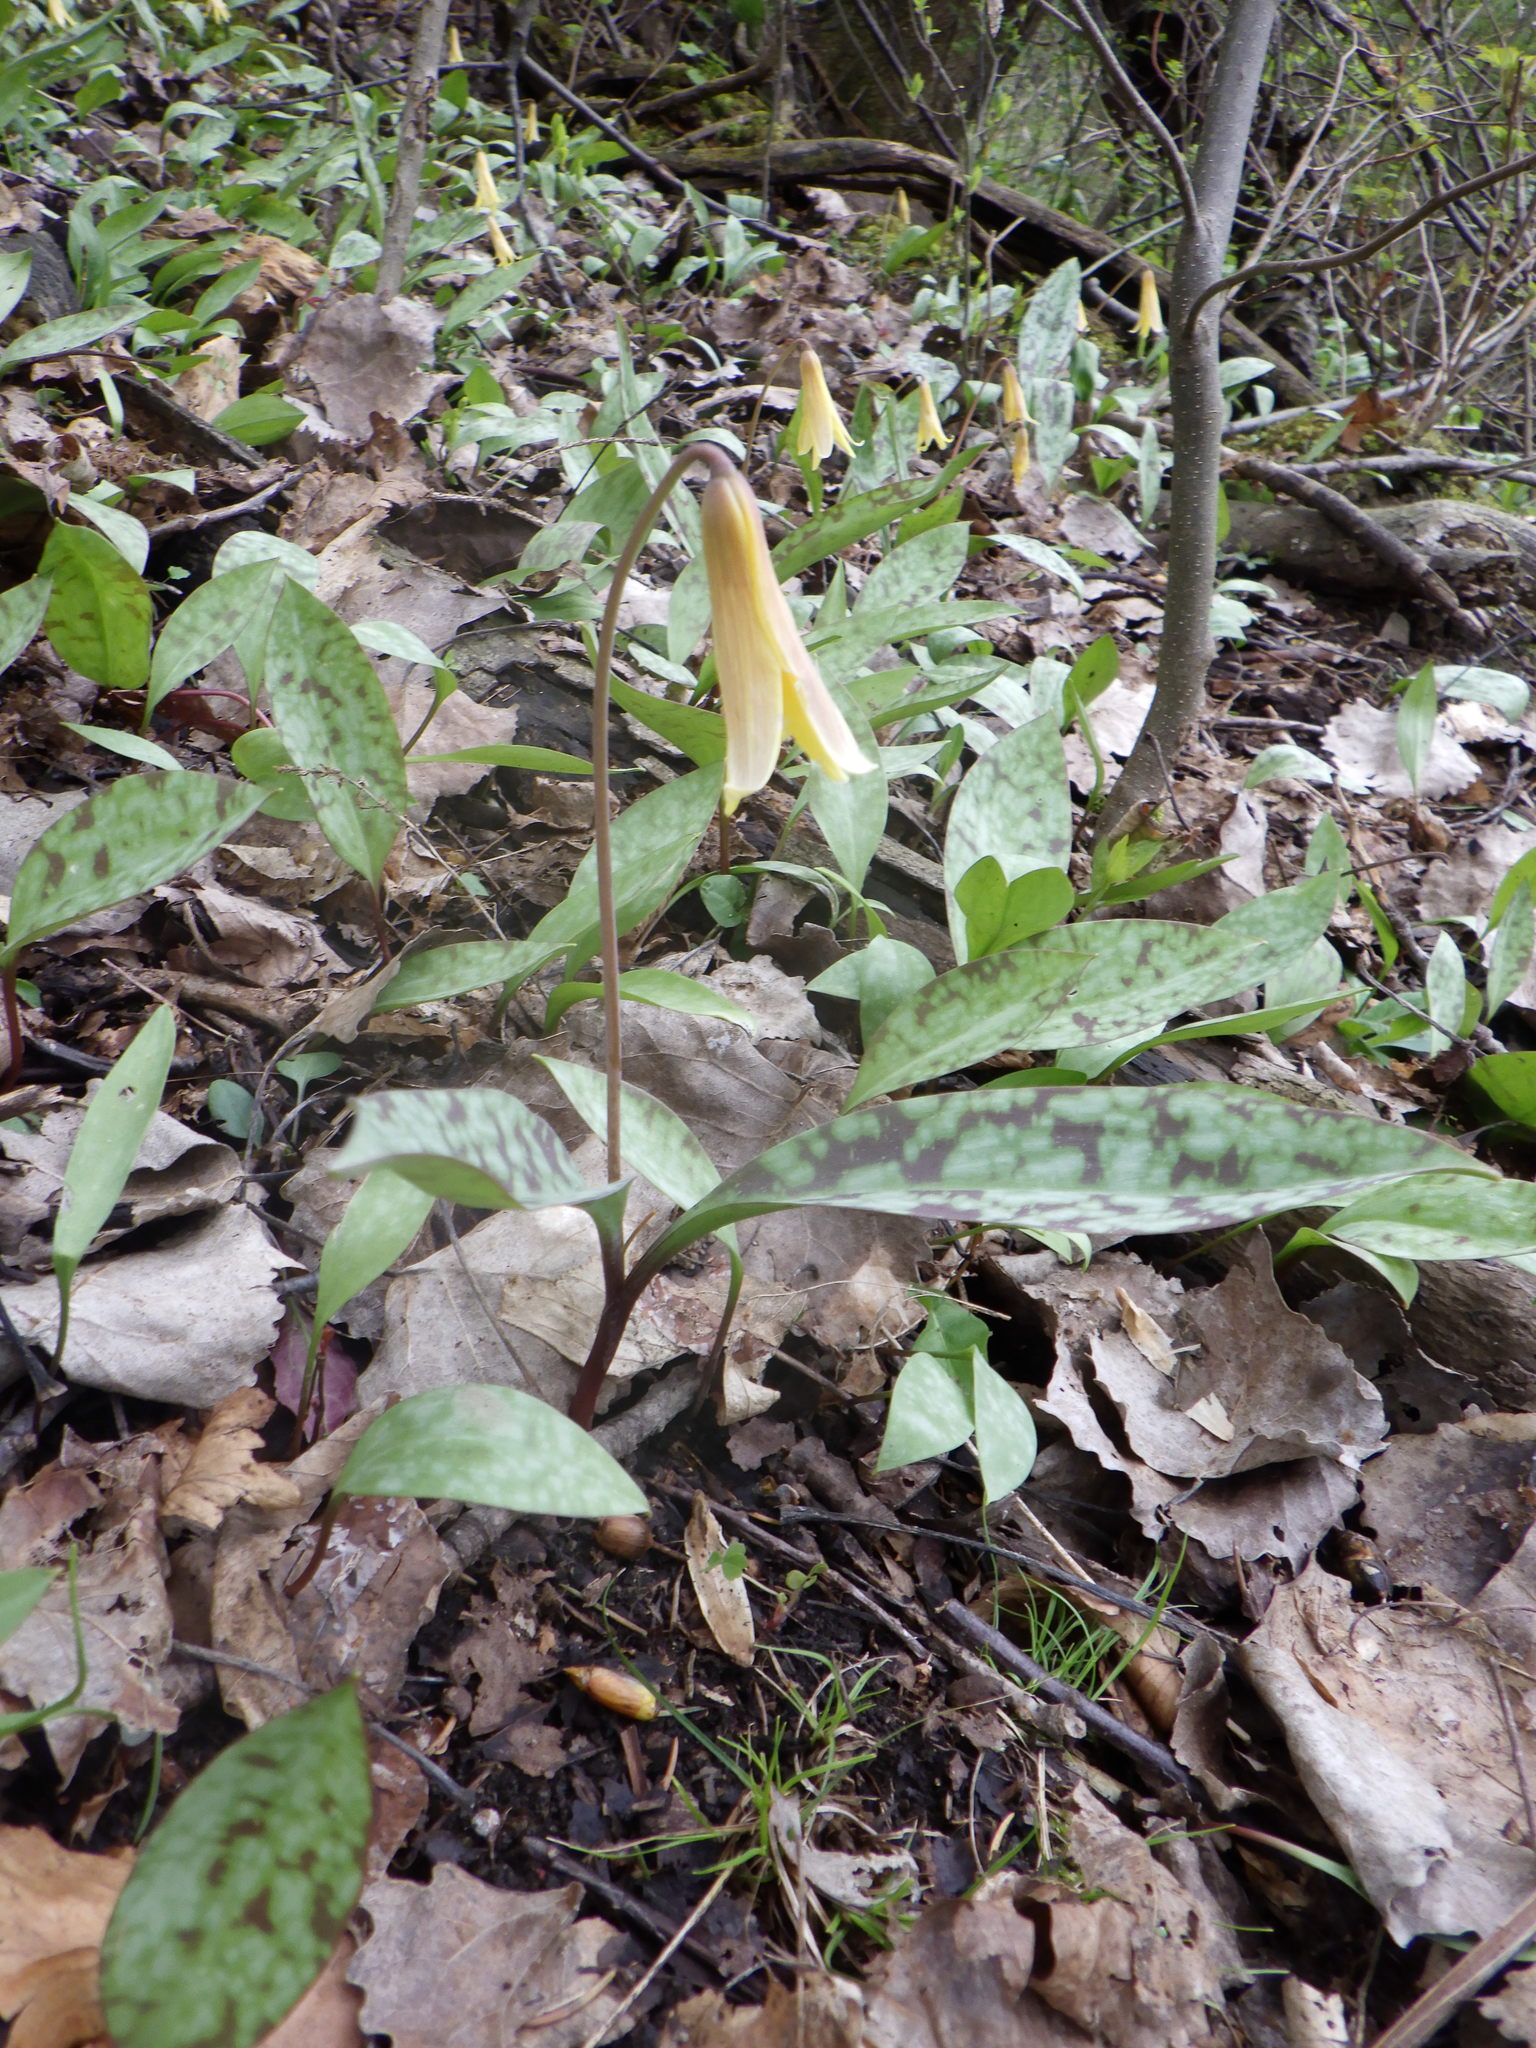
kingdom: Plantae
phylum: Tracheophyta
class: Liliopsida
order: Liliales
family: Liliaceae
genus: Erythronium
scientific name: Erythronium americanum
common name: Yellow adder's-tongue
